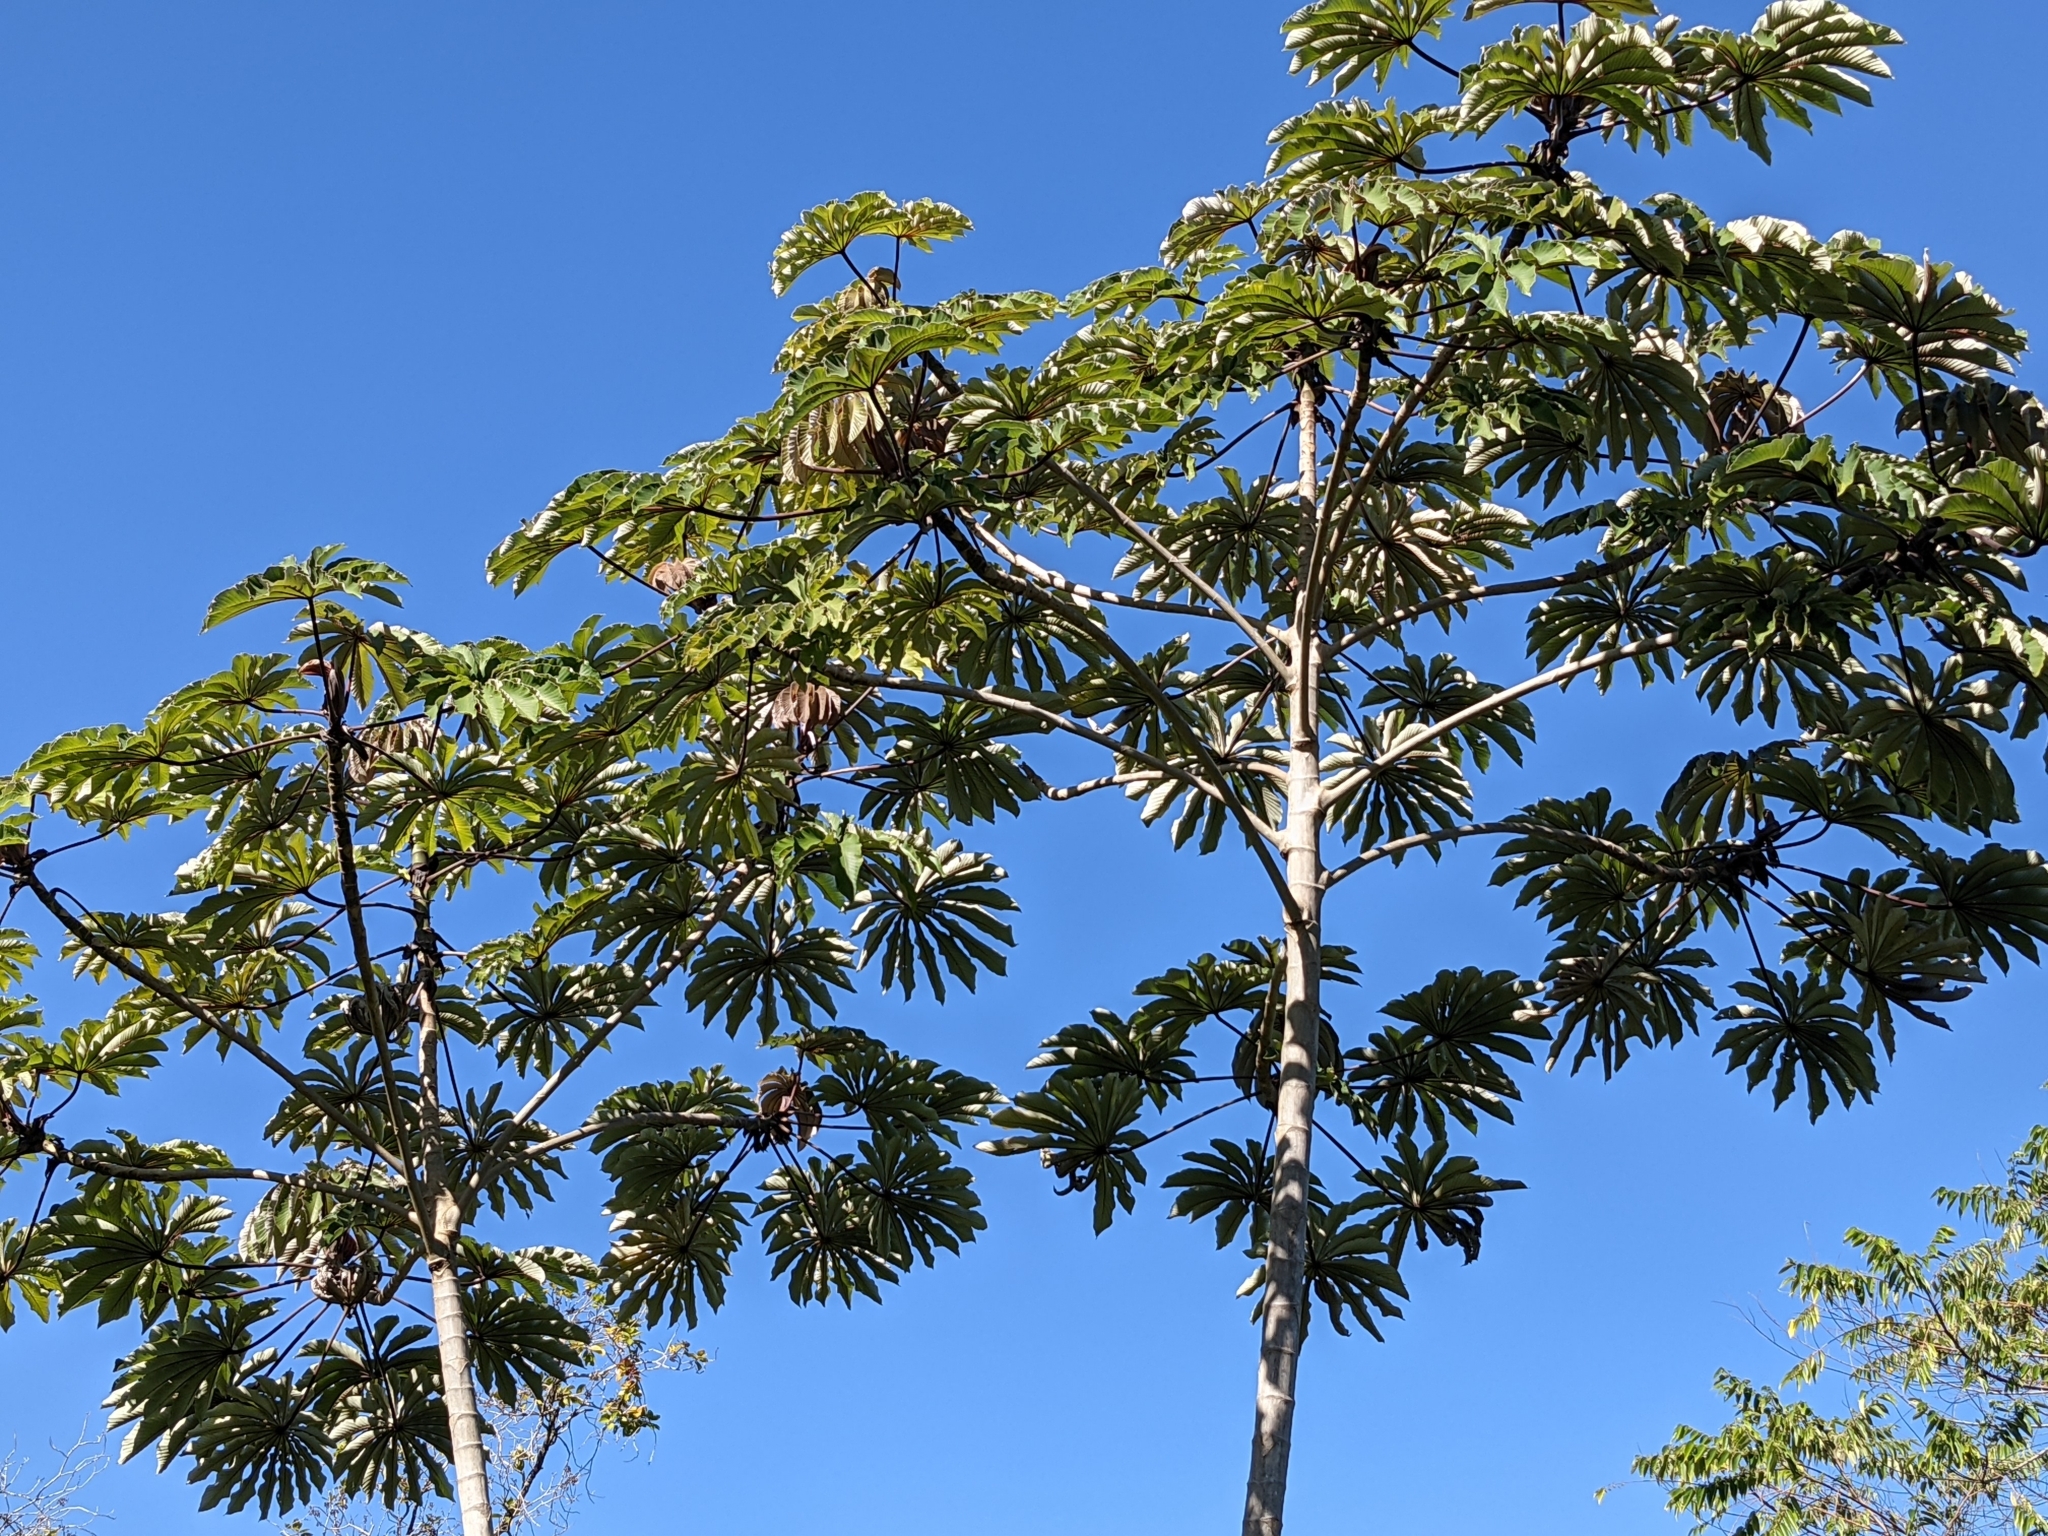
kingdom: Plantae
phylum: Tracheophyta
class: Magnoliopsida
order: Rosales
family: Urticaceae
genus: Cecropia
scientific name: Cecropia obtusifolia
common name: Trumpet tree
